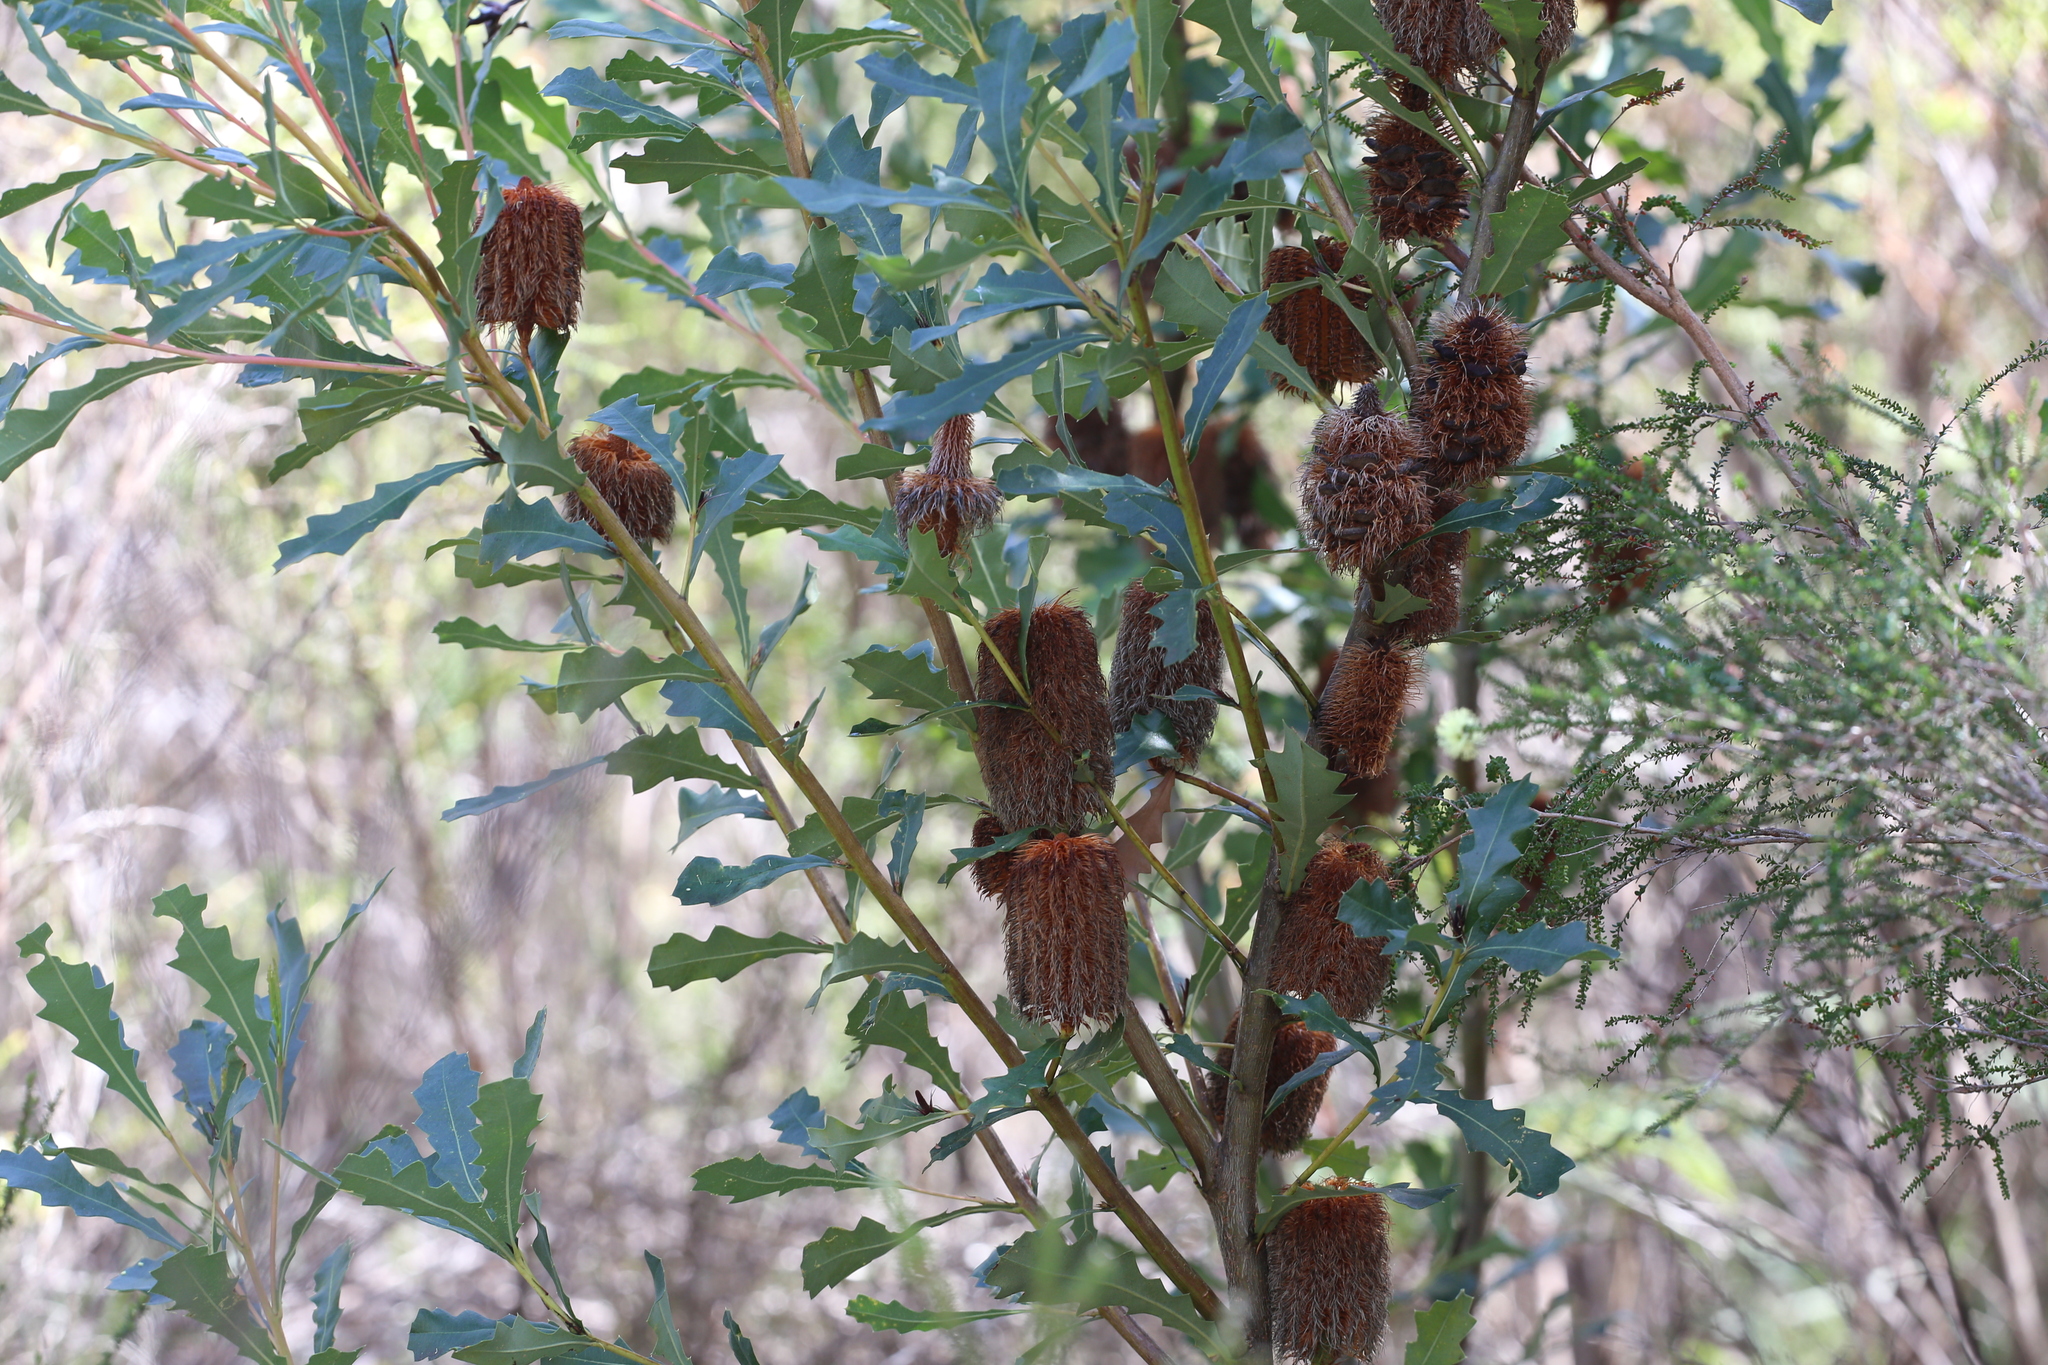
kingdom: Plantae
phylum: Tracheophyta
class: Magnoliopsida
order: Proteales
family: Proteaceae
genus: Banksia
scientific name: Banksia quercifolia
